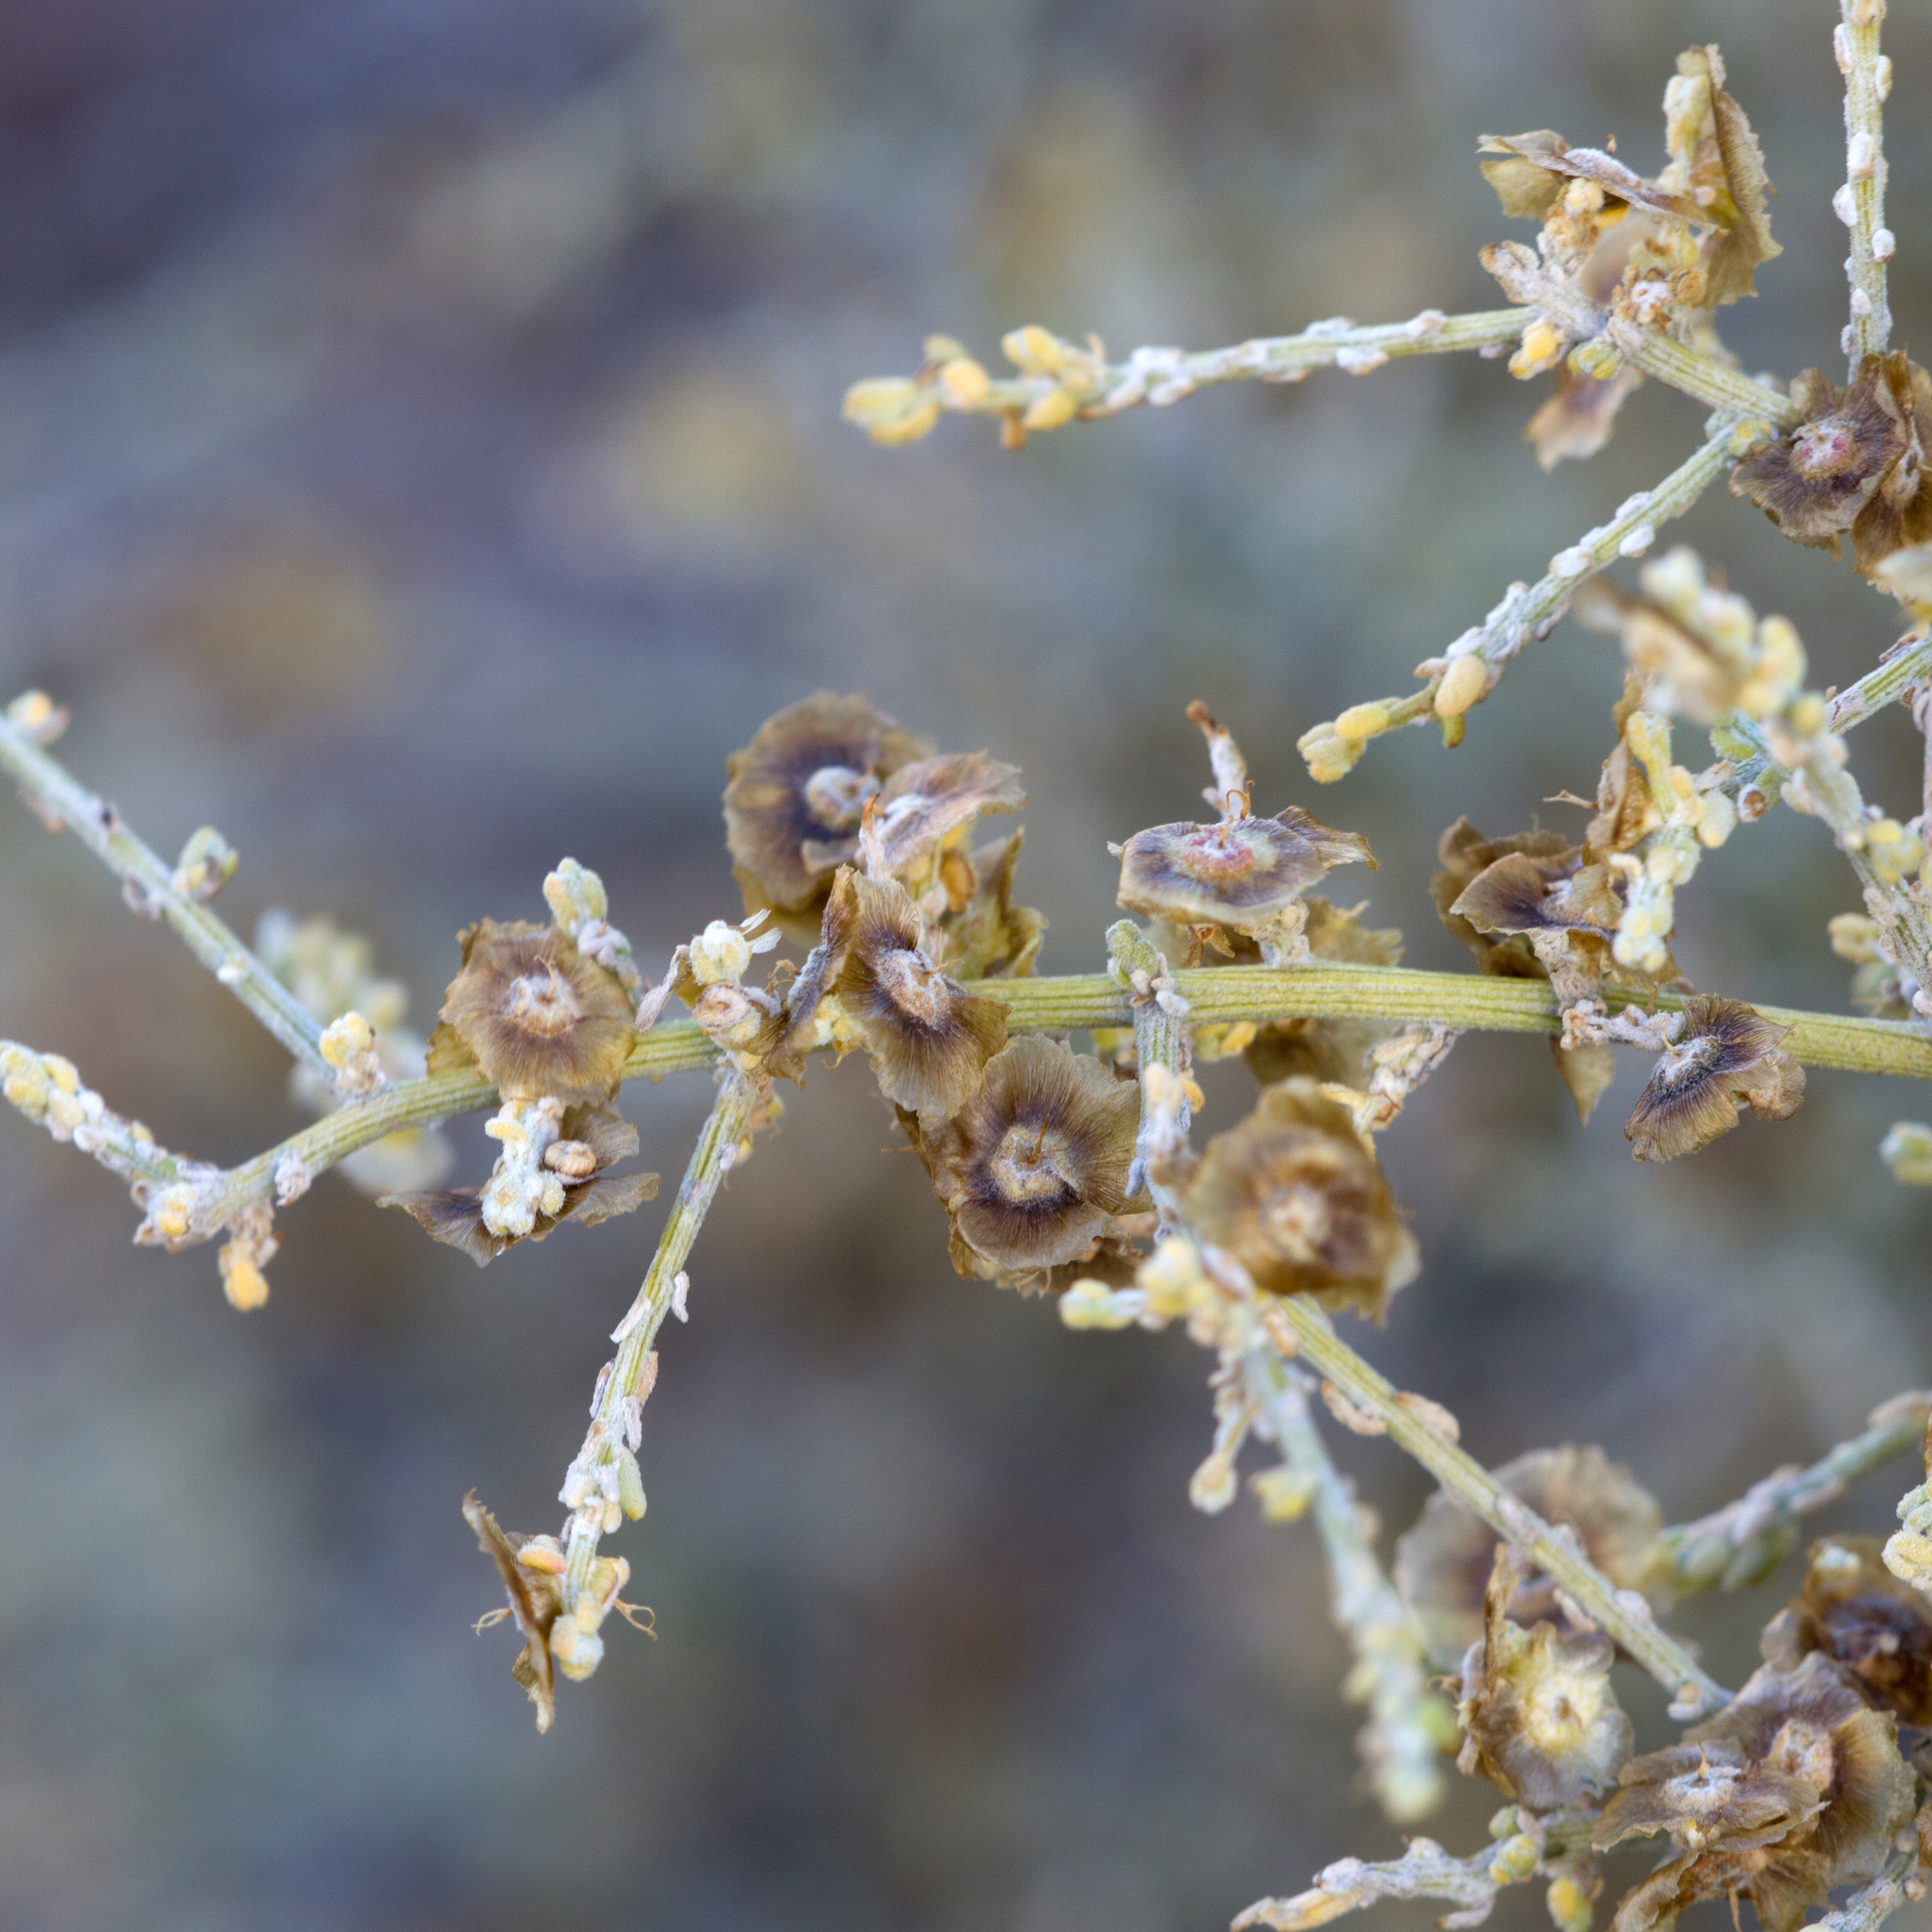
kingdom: Plantae
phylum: Tracheophyta
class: Magnoliopsida
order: Caryophyllales
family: Amaranthaceae
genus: Maireana
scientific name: Maireana aphylla
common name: Cottonbush
